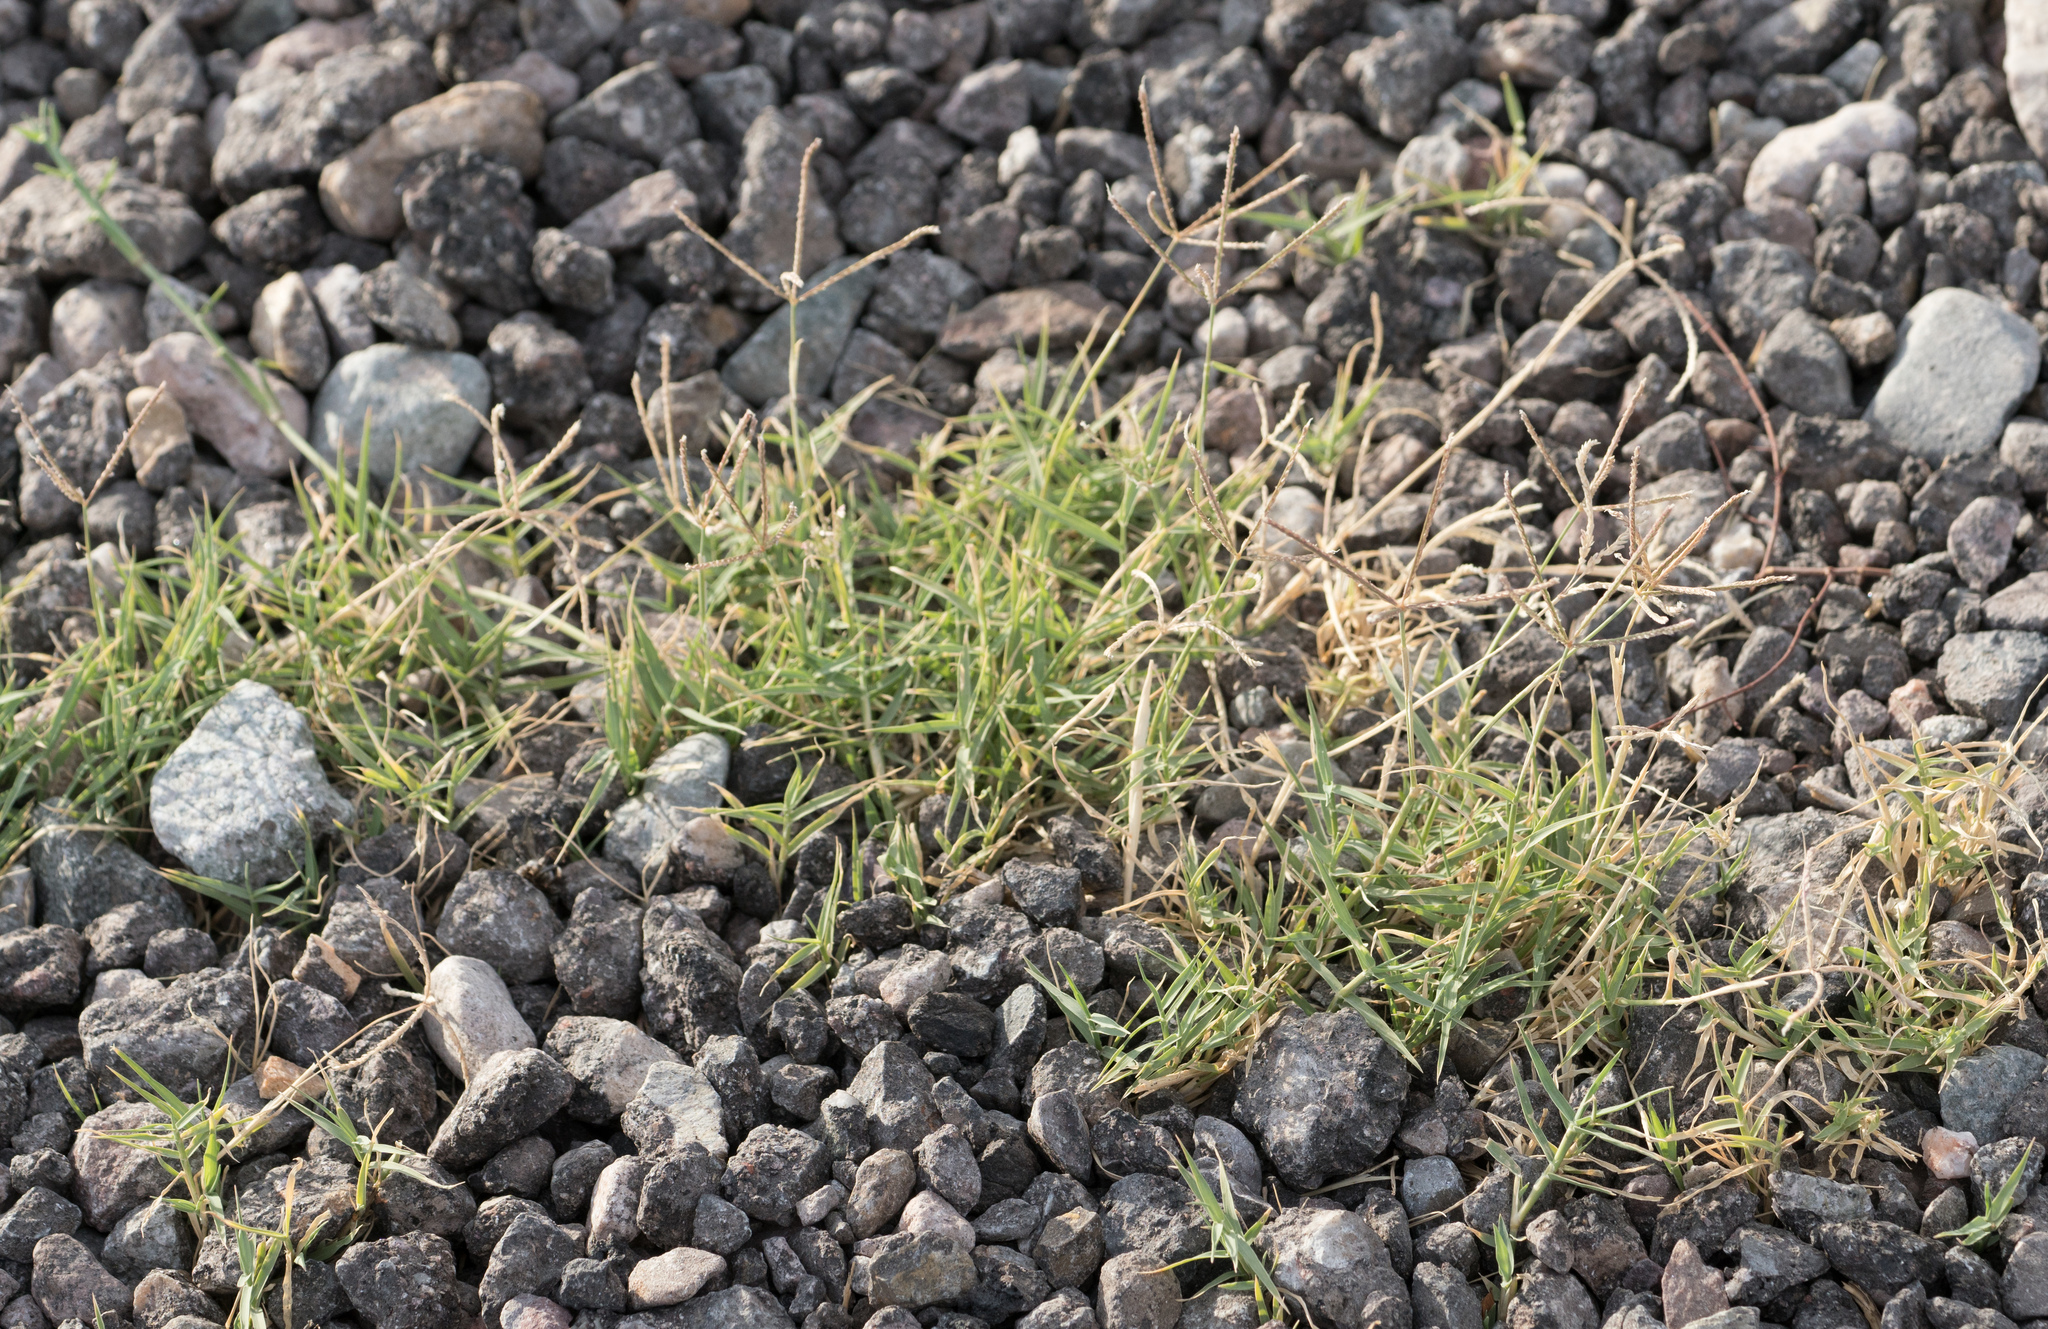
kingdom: Plantae
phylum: Tracheophyta
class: Liliopsida
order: Poales
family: Poaceae
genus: Cynodon
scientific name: Cynodon dactylon
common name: Bermuda grass
